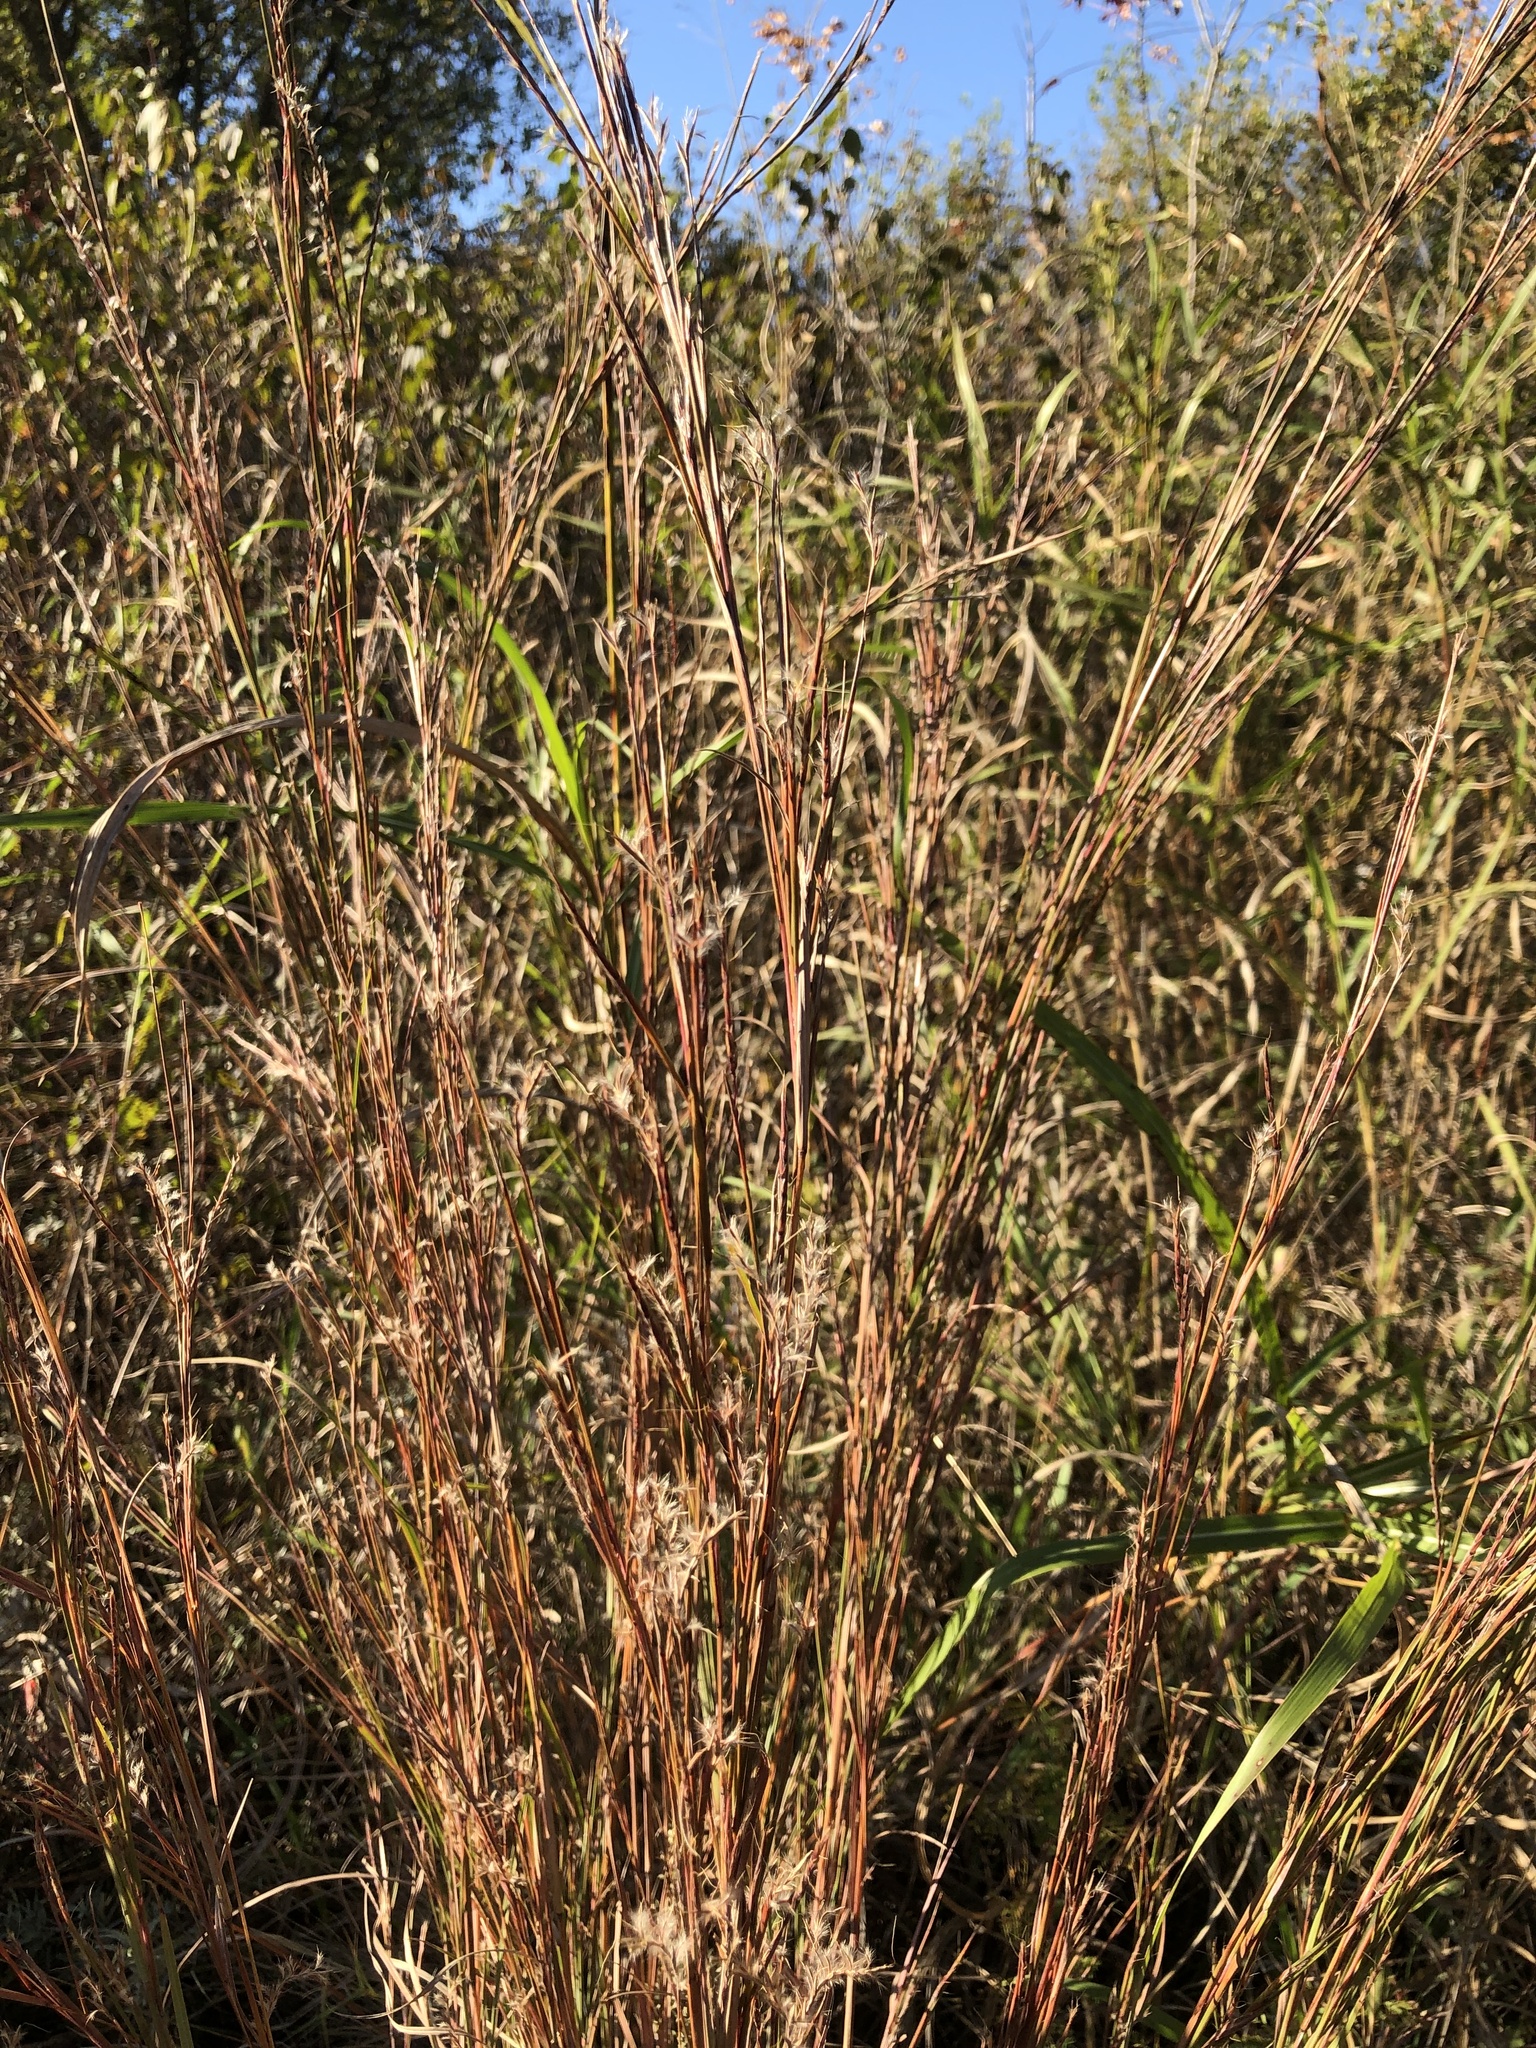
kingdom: Plantae
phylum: Tracheophyta
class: Liliopsida
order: Poales
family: Poaceae
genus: Schizachyrium
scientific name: Schizachyrium scoparium
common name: Little bluestem
